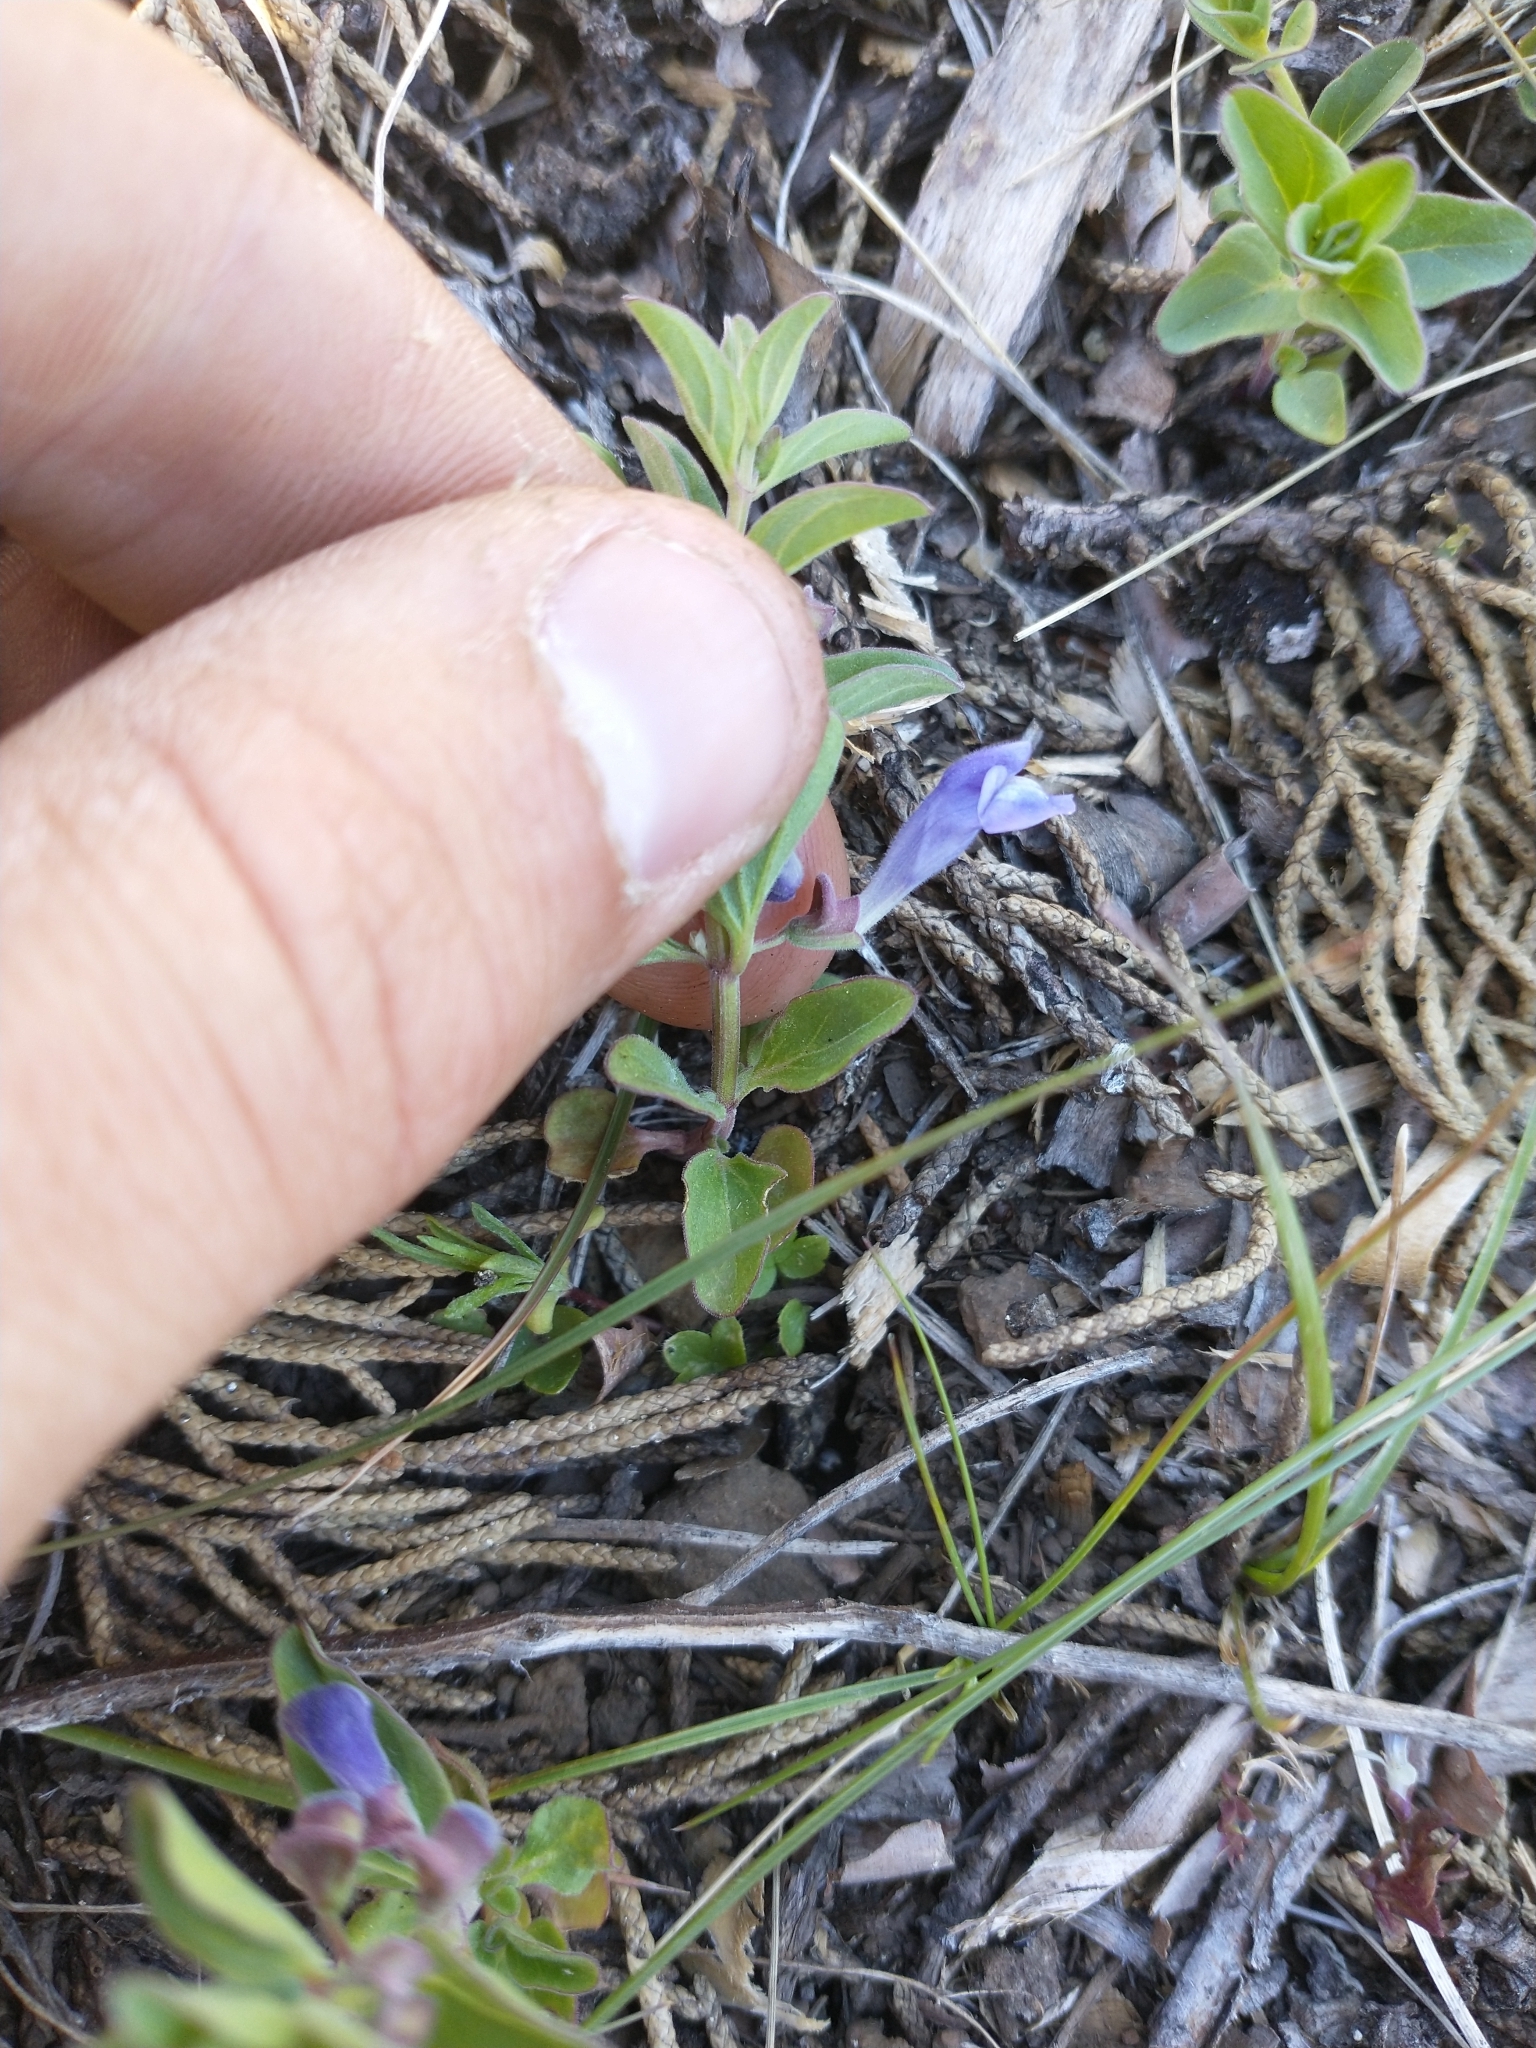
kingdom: Plantae
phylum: Tracheophyta
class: Magnoliopsida
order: Lamiales
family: Lamiaceae
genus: Scutellaria
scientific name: Scutellaria angustifolia
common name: Narrow-leaved skullcap
